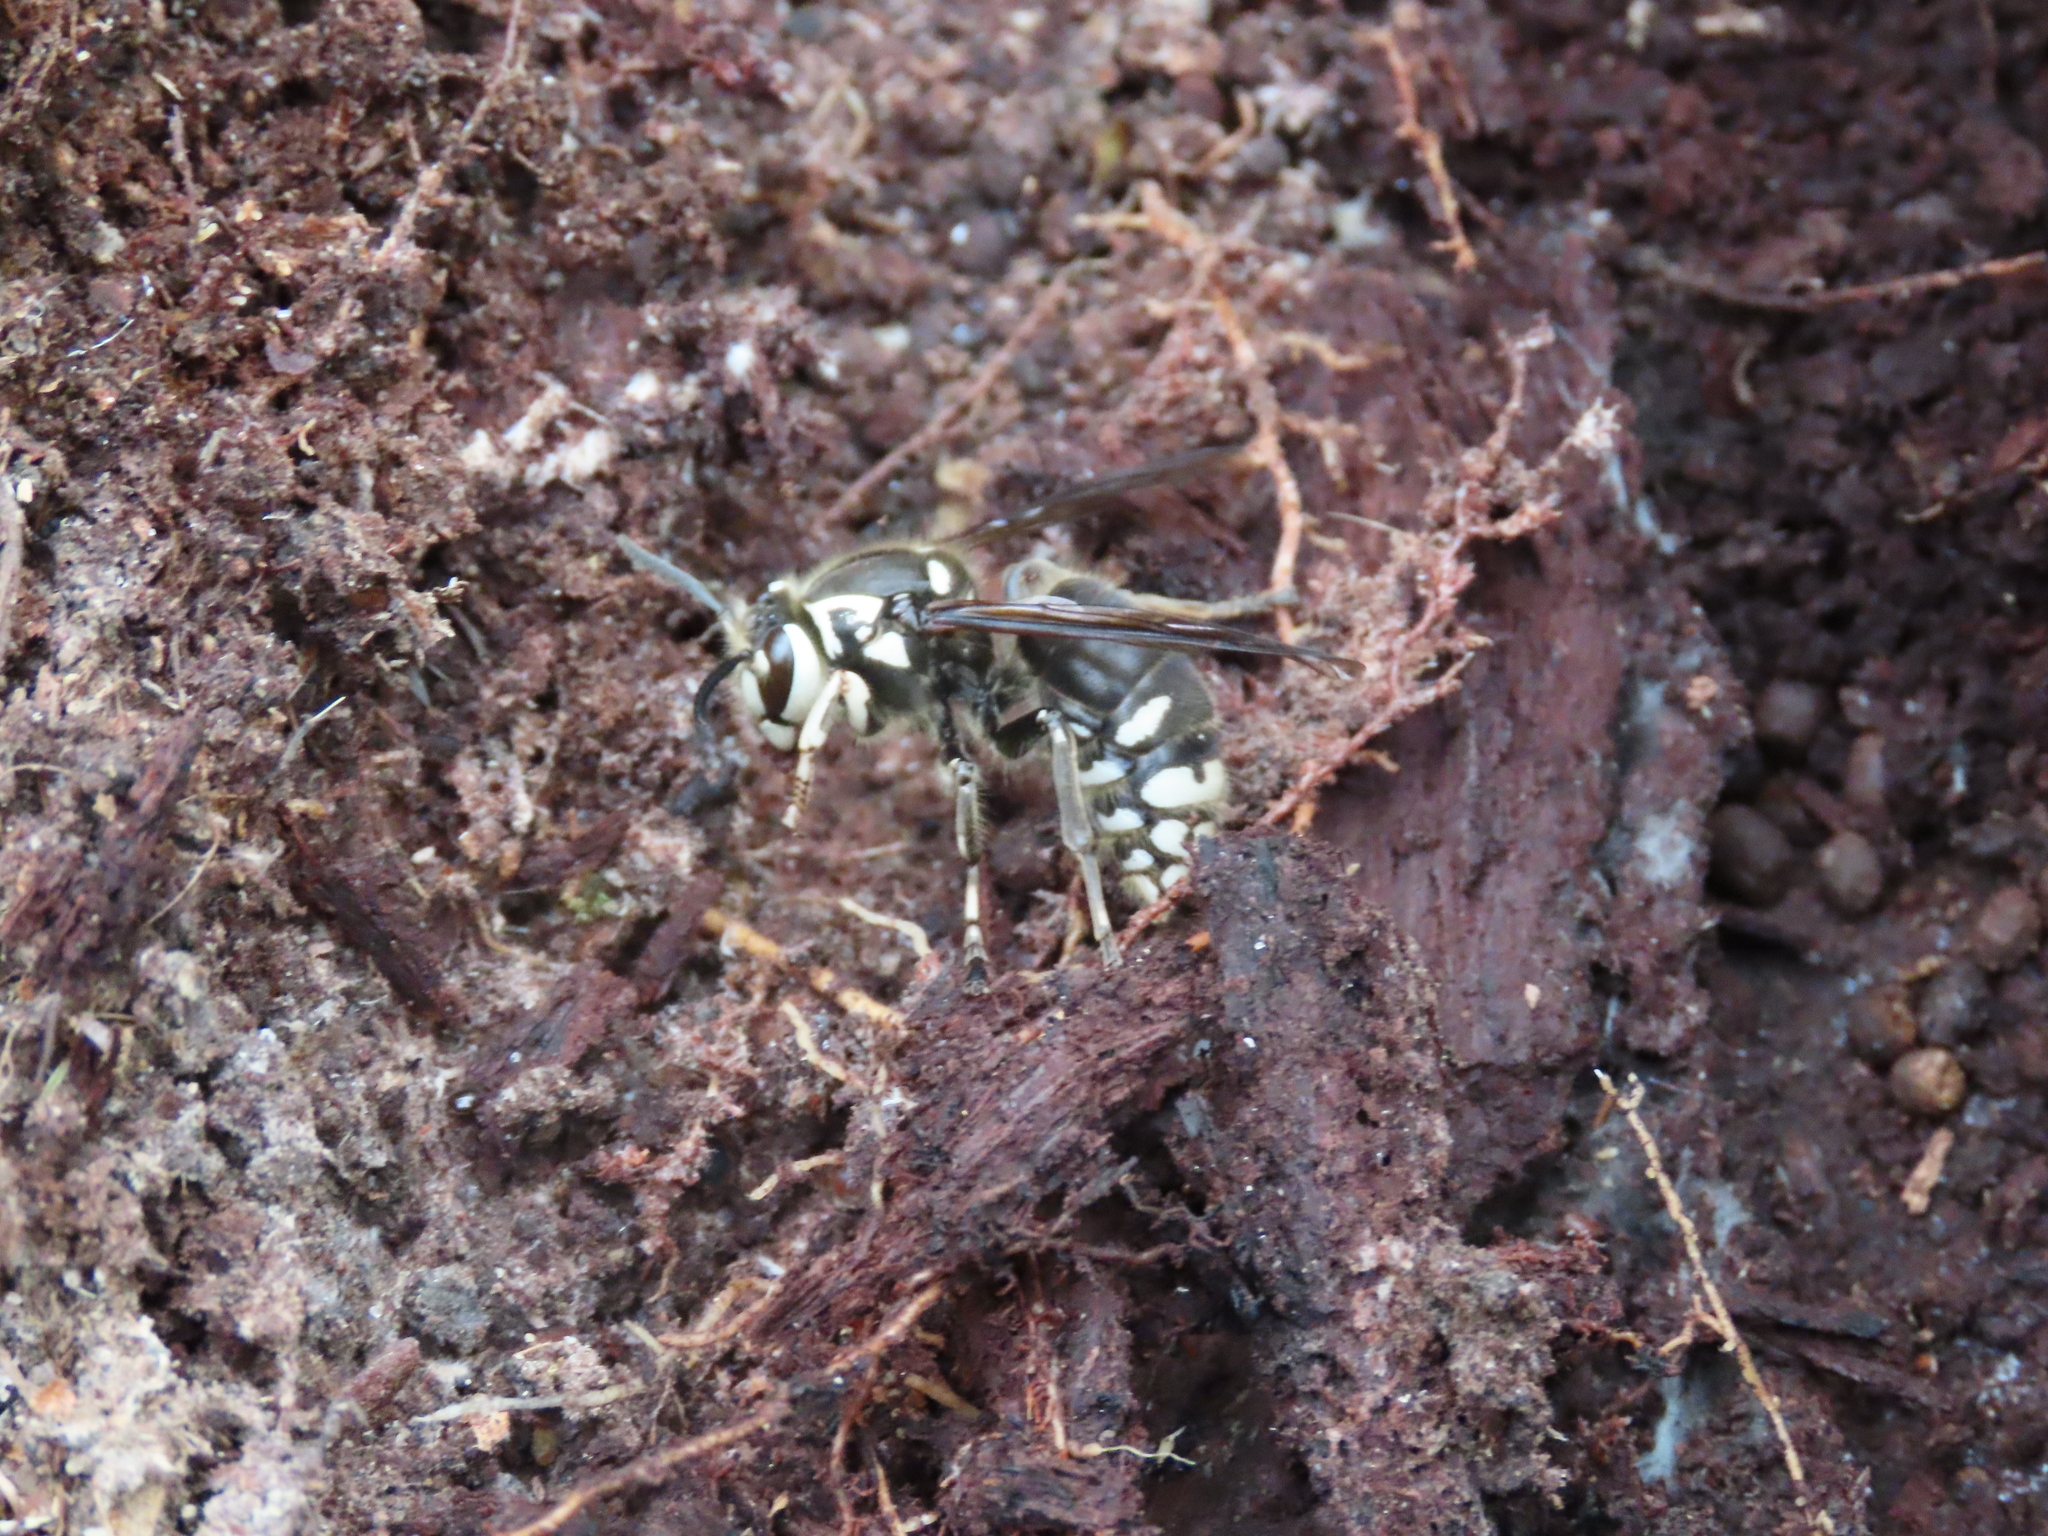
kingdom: Animalia
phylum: Arthropoda
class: Insecta
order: Hymenoptera
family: Vespidae
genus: Dolichovespula
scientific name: Dolichovespula maculata
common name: Bald-faced hornet
